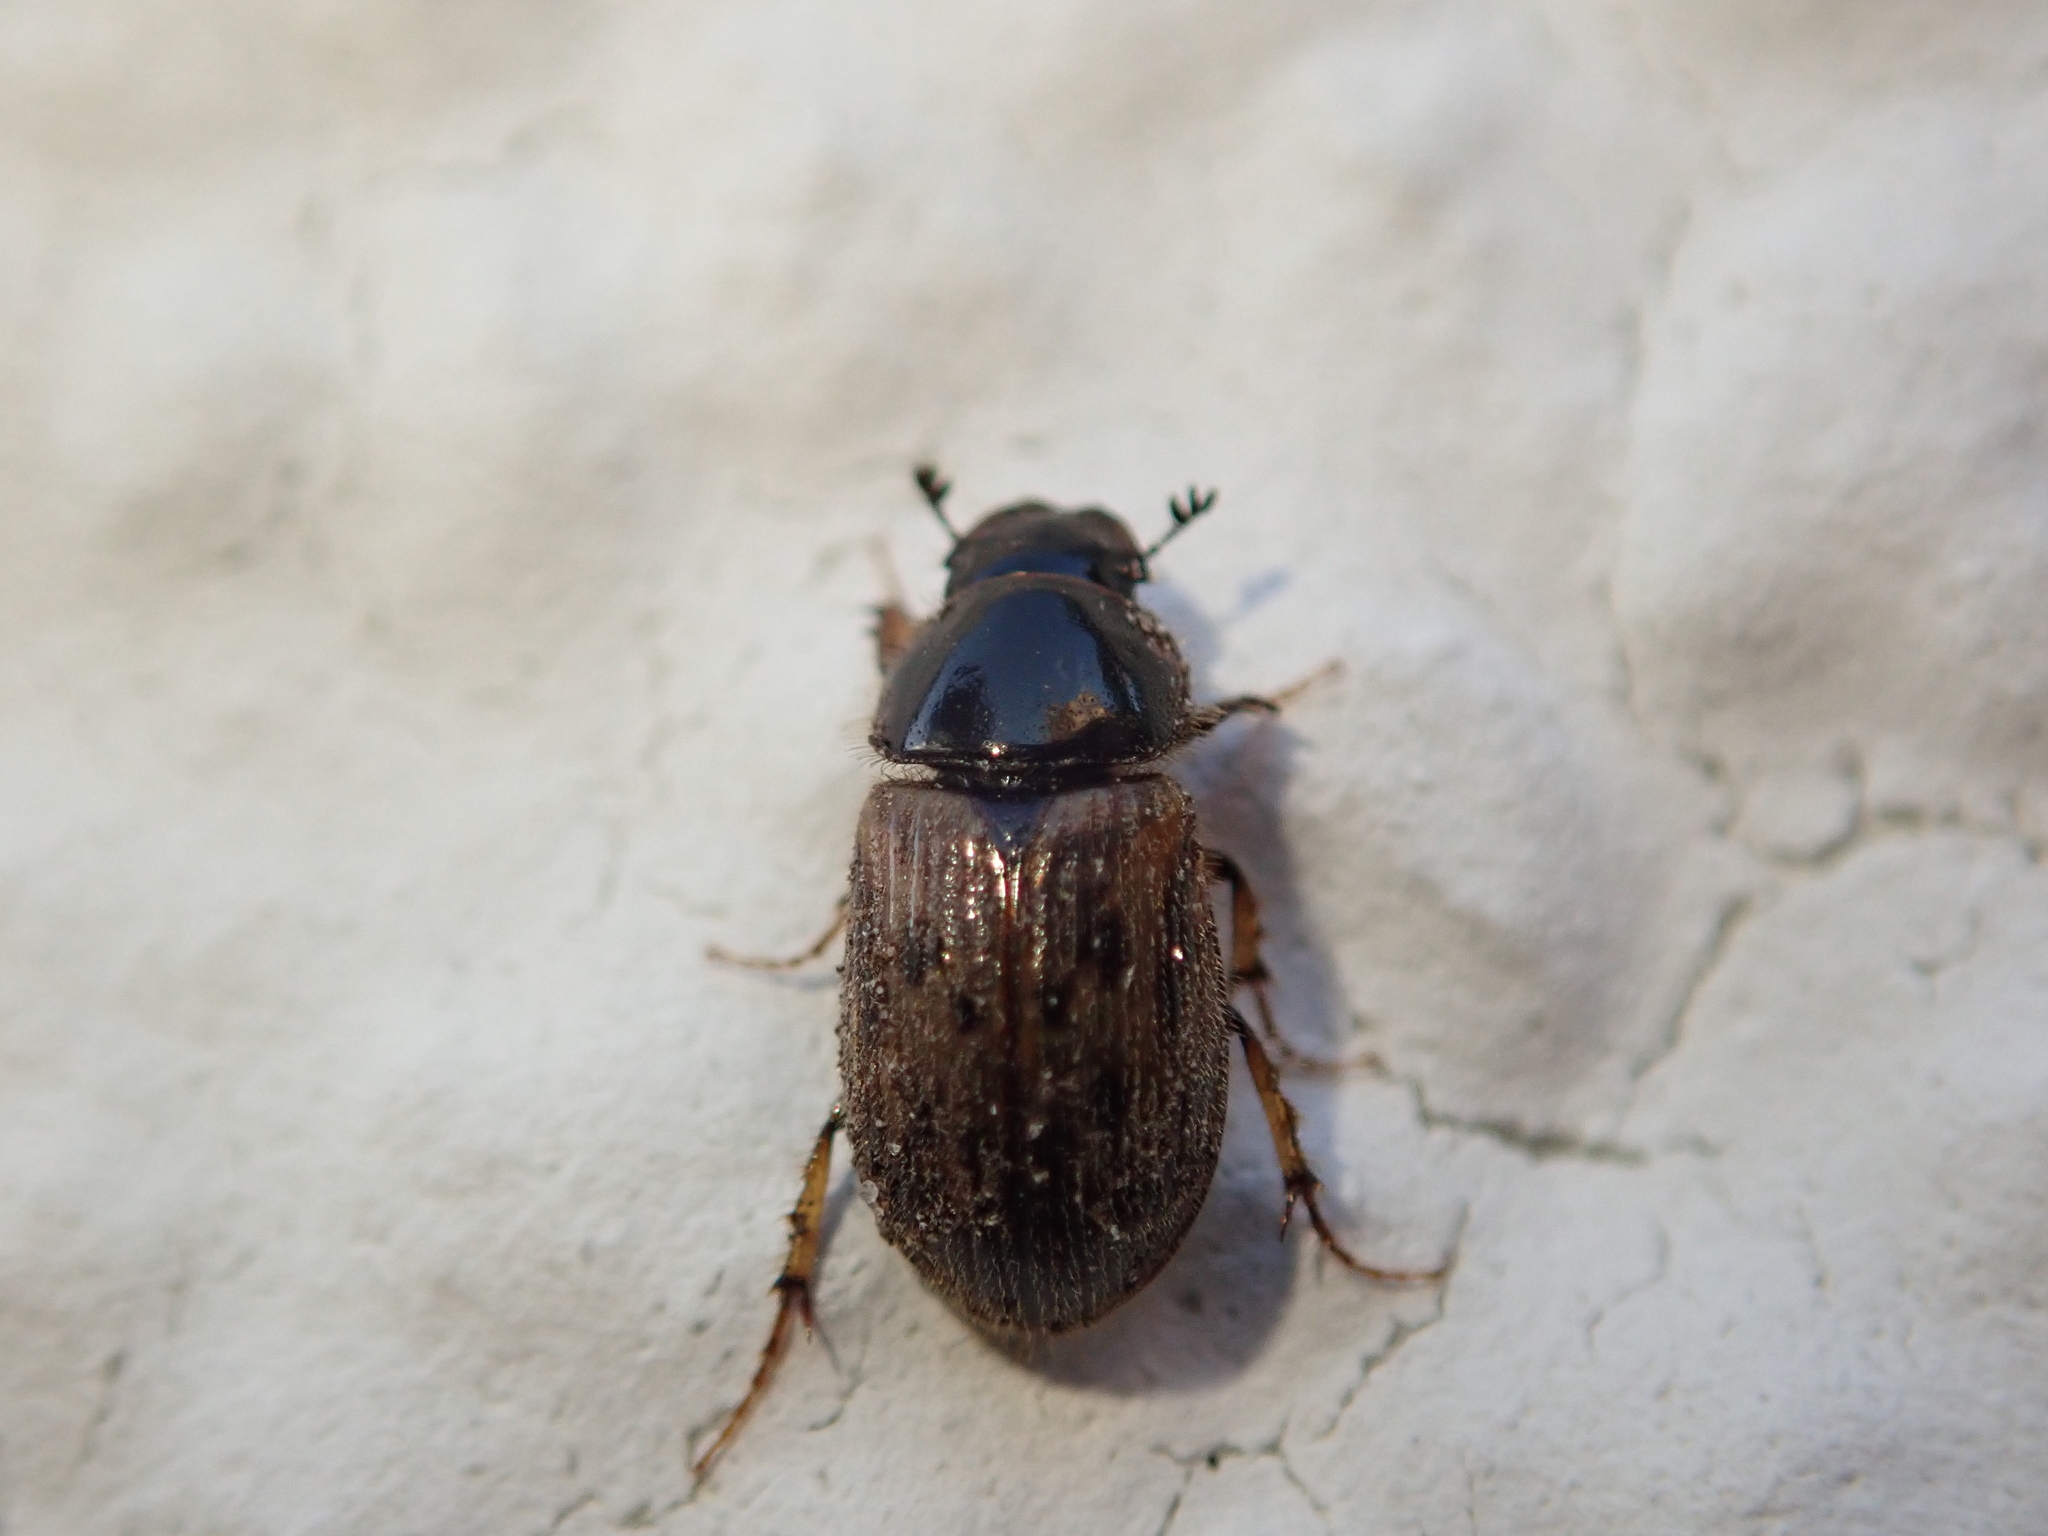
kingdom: Animalia
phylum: Arthropoda
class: Insecta
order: Coleoptera
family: Scarabaeidae
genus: Nimbus
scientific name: Nimbus contaminatus
